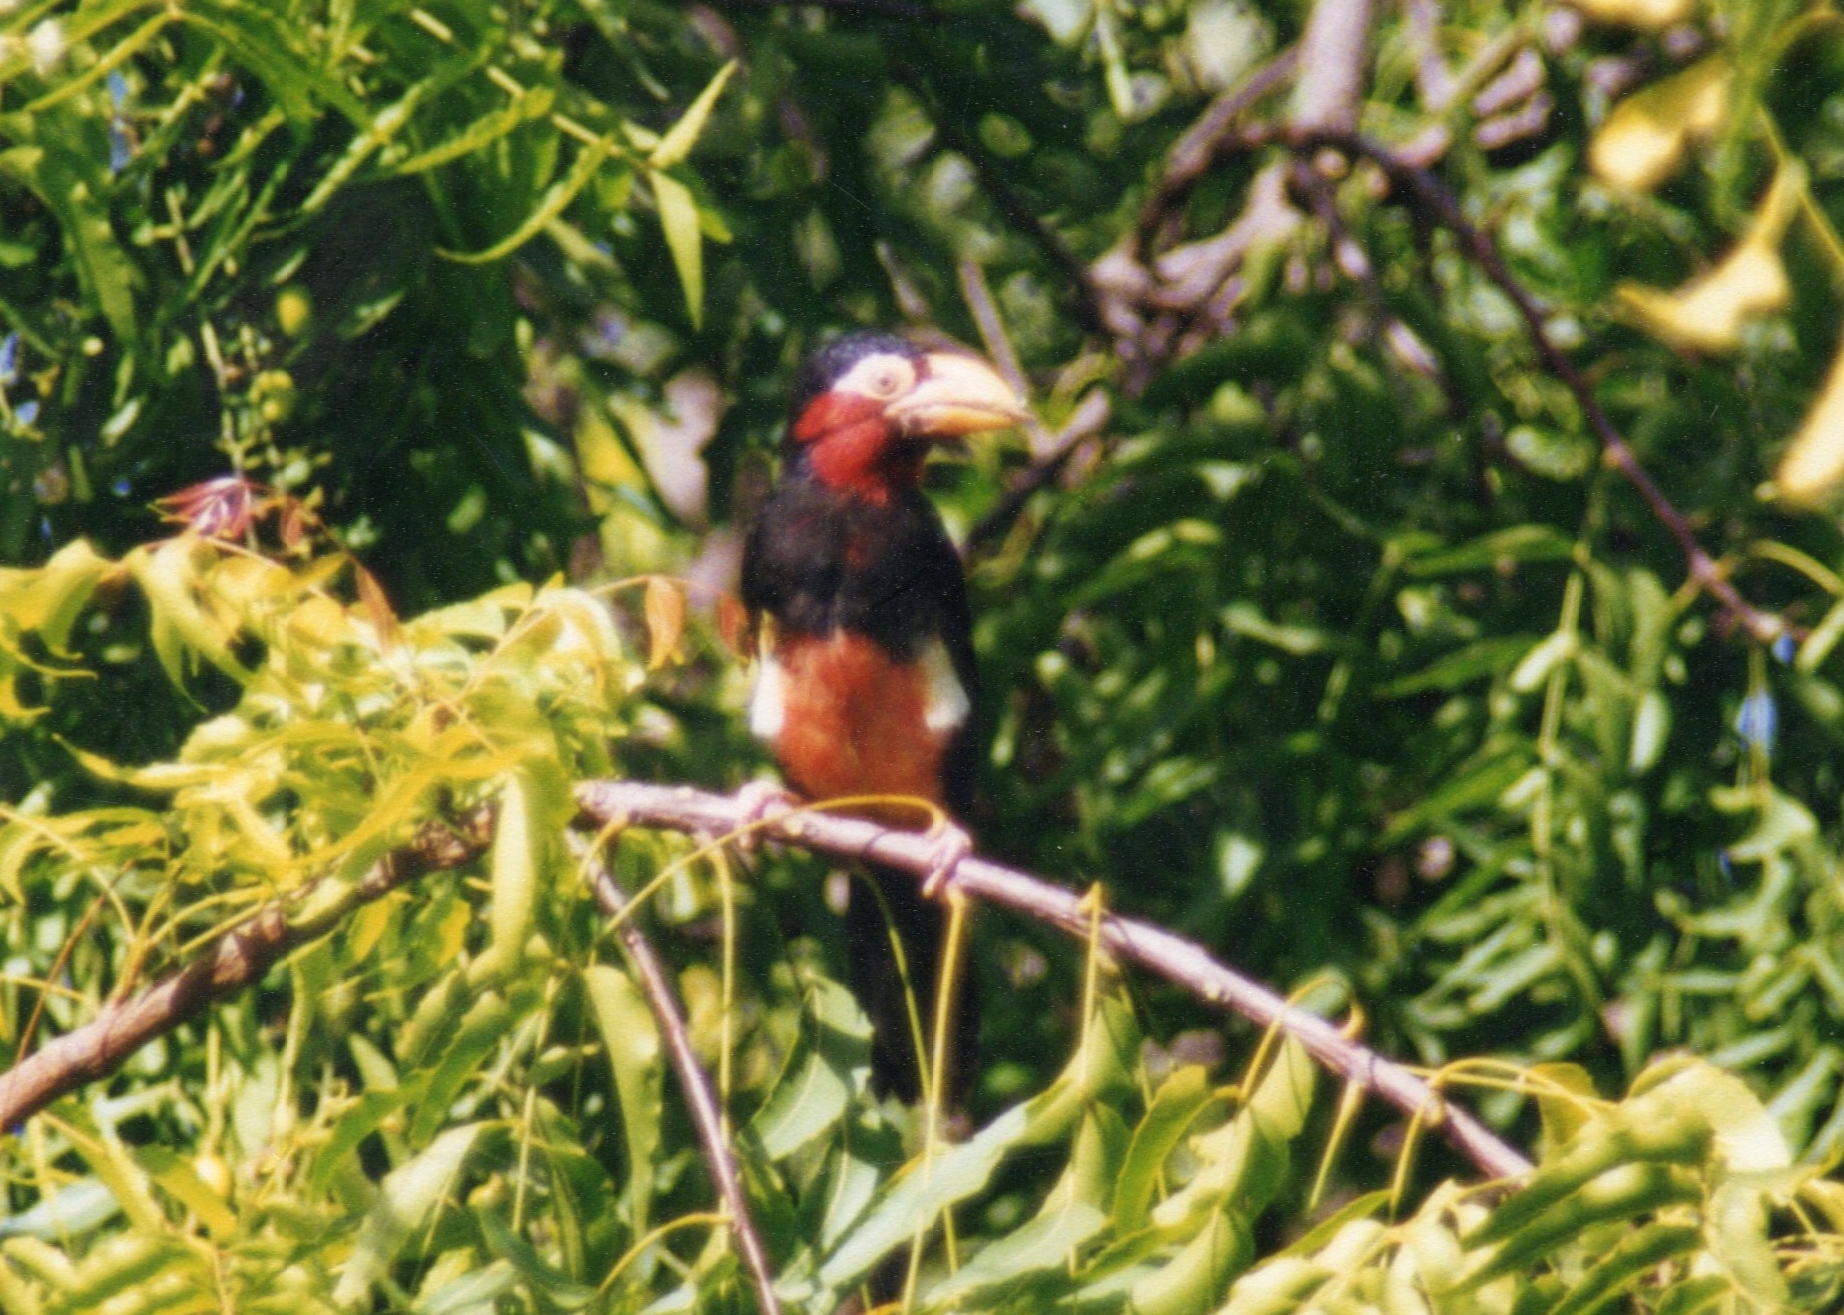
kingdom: Animalia
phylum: Chordata
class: Aves
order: Piciformes
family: Lybiidae
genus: Lybius
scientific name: Lybius dubius
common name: Bearded barbet
